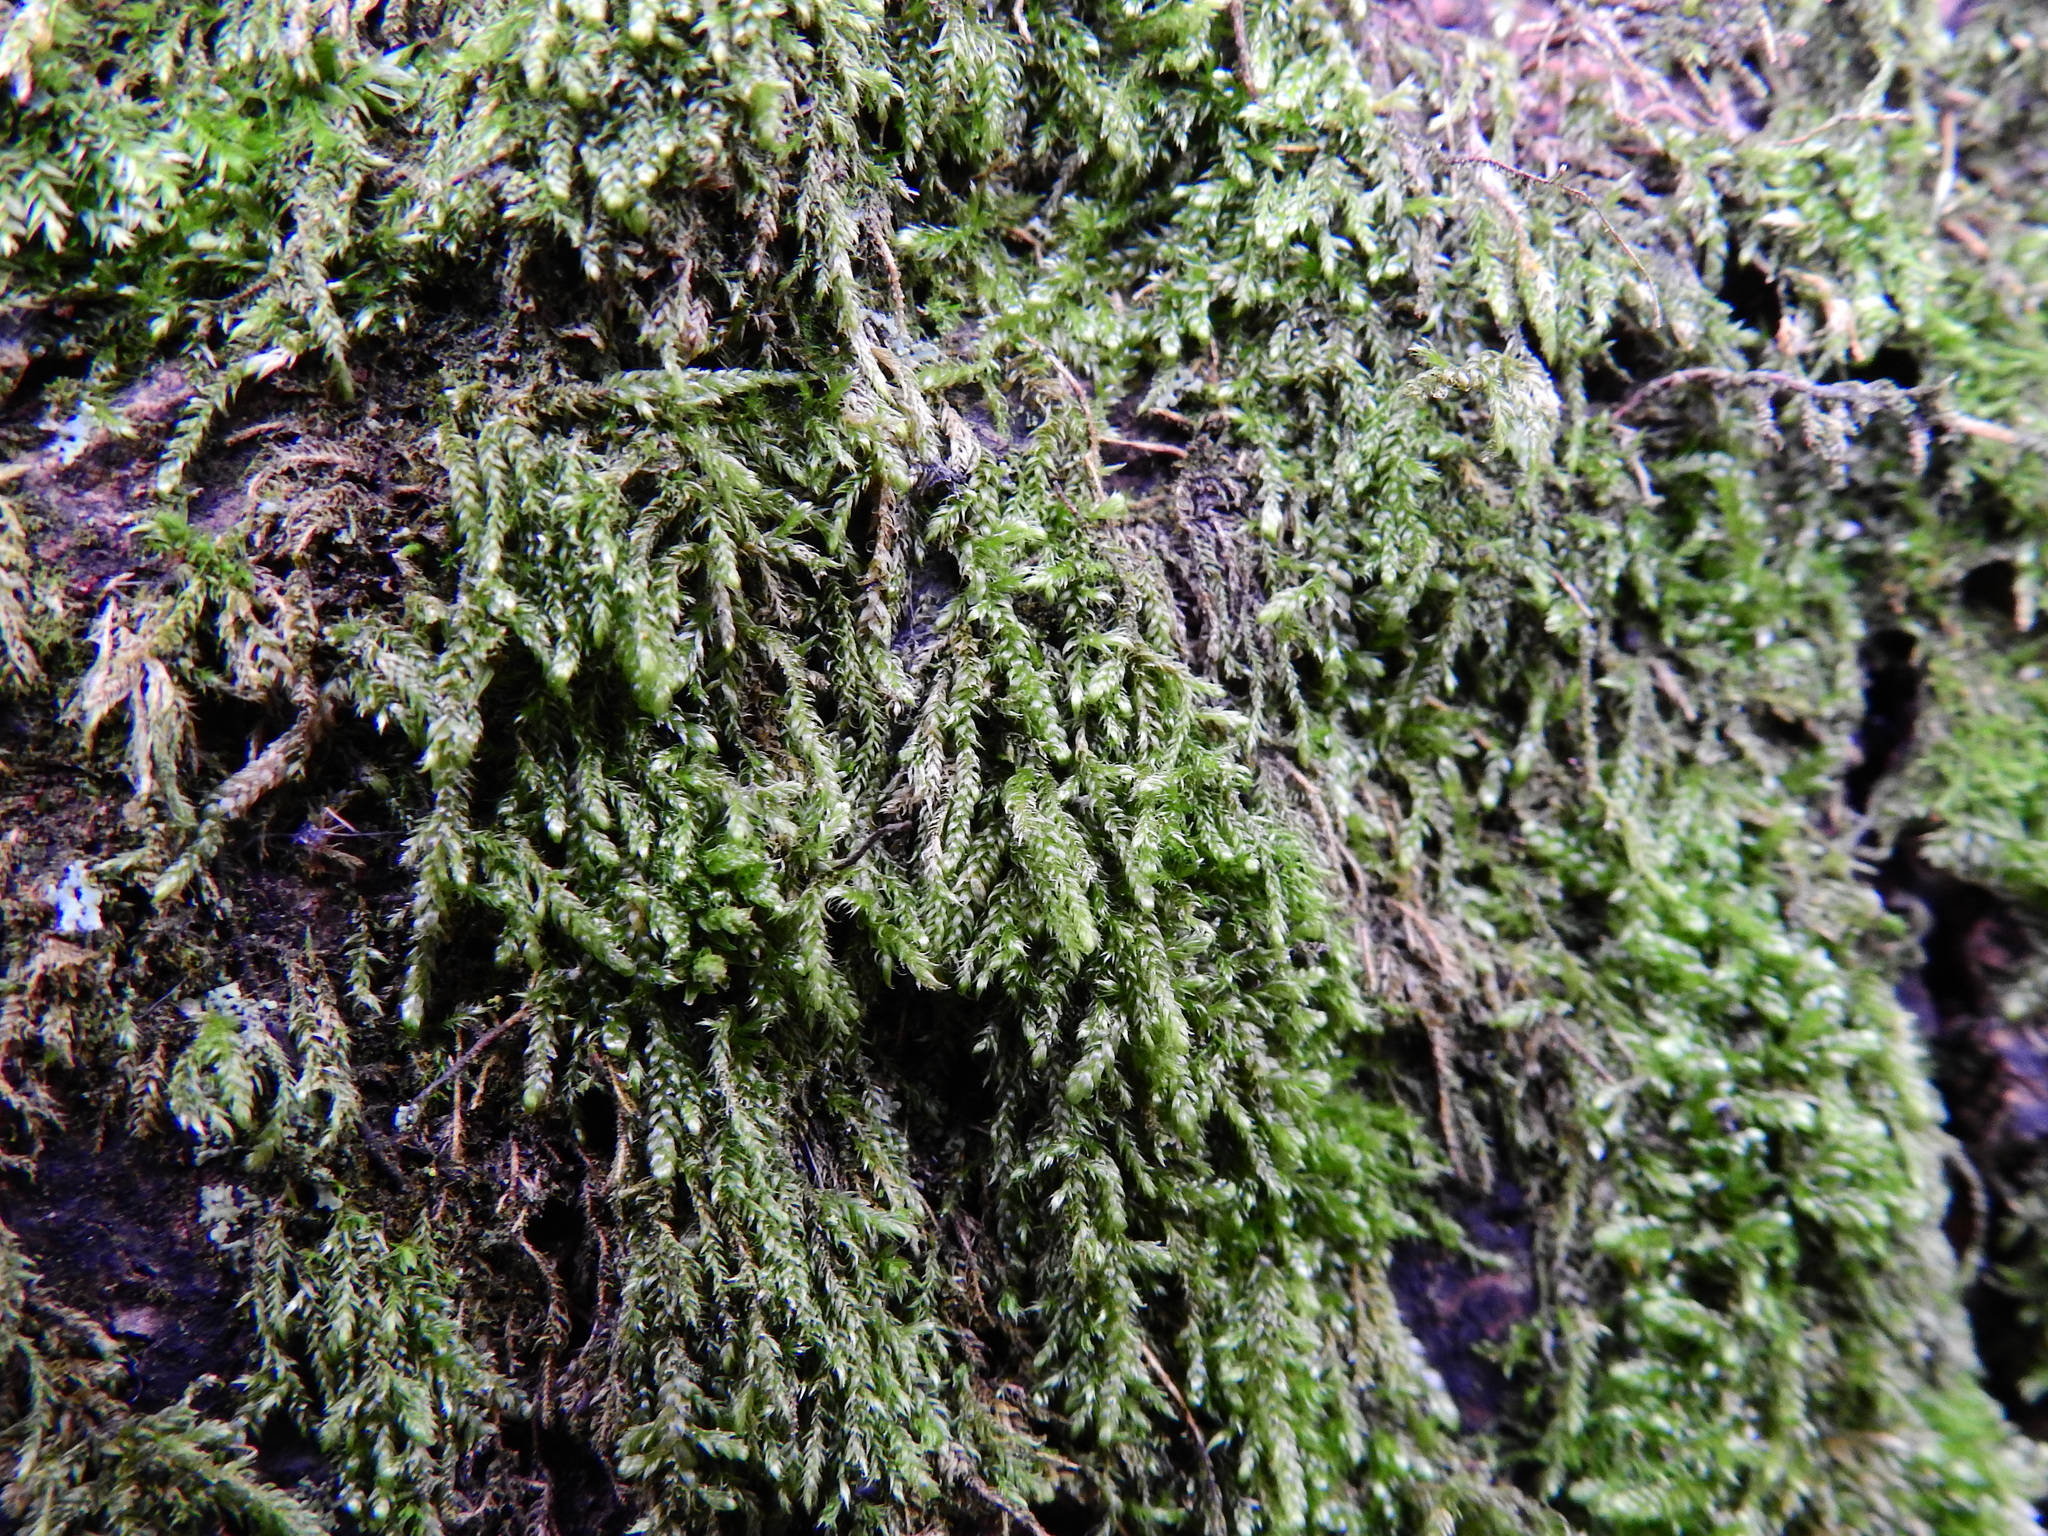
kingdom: Plantae
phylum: Bryophyta
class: Bryopsida
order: Hypnales
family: Hypnaceae
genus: Hypnum
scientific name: Hypnum cupressiforme
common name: Cypress-leaved plait-moss
